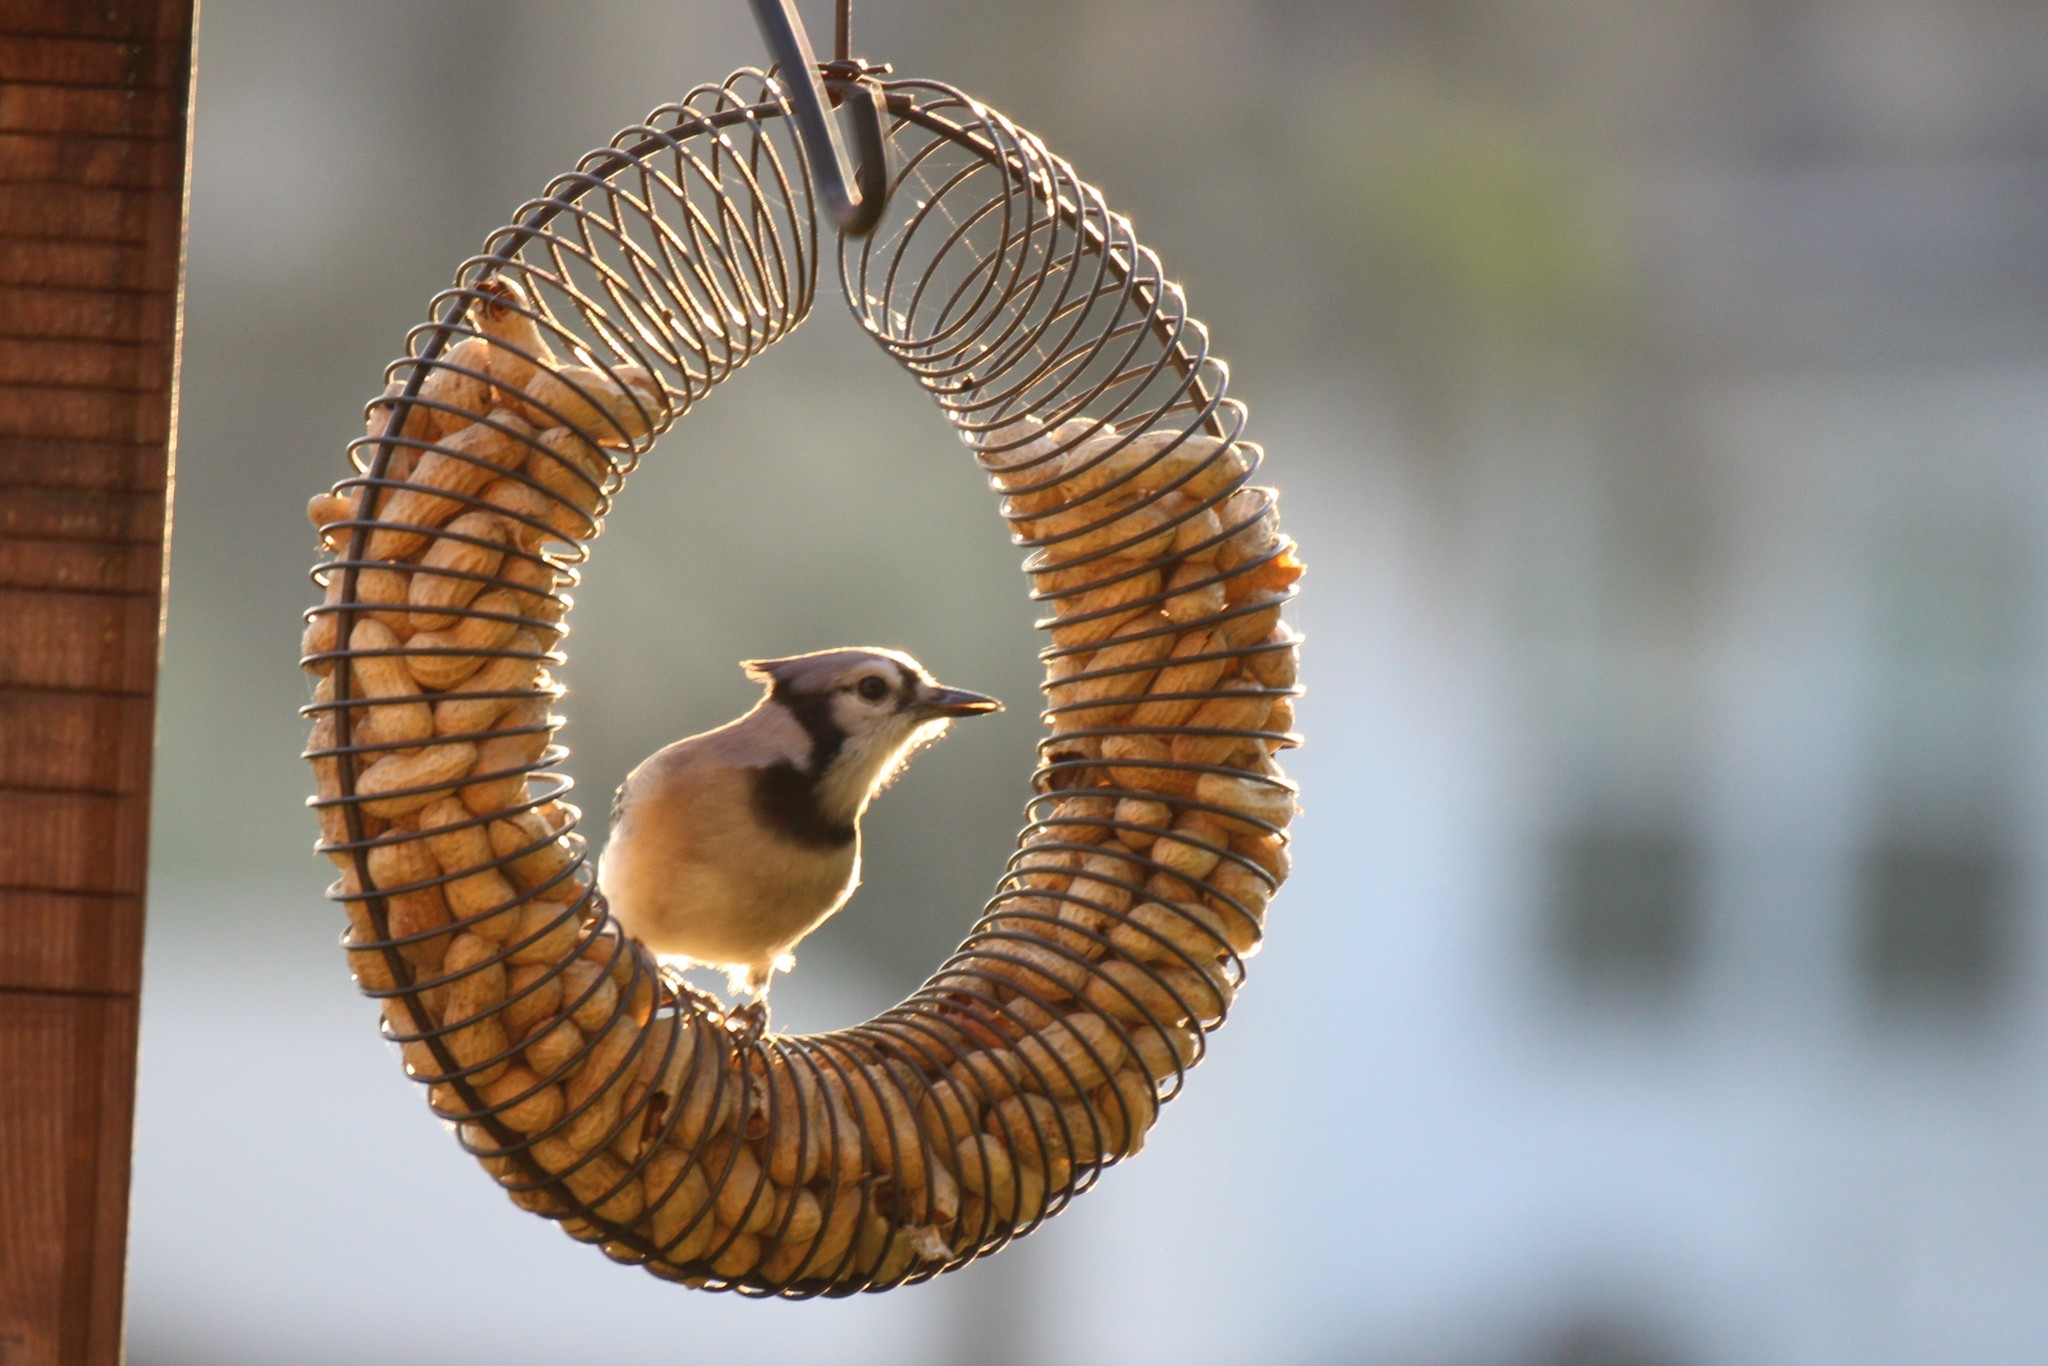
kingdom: Animalia
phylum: Chordata
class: Aves
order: Passeriformes
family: Corvidae
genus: Cyanocitta
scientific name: Cyanocitta cristata
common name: Blue jay
